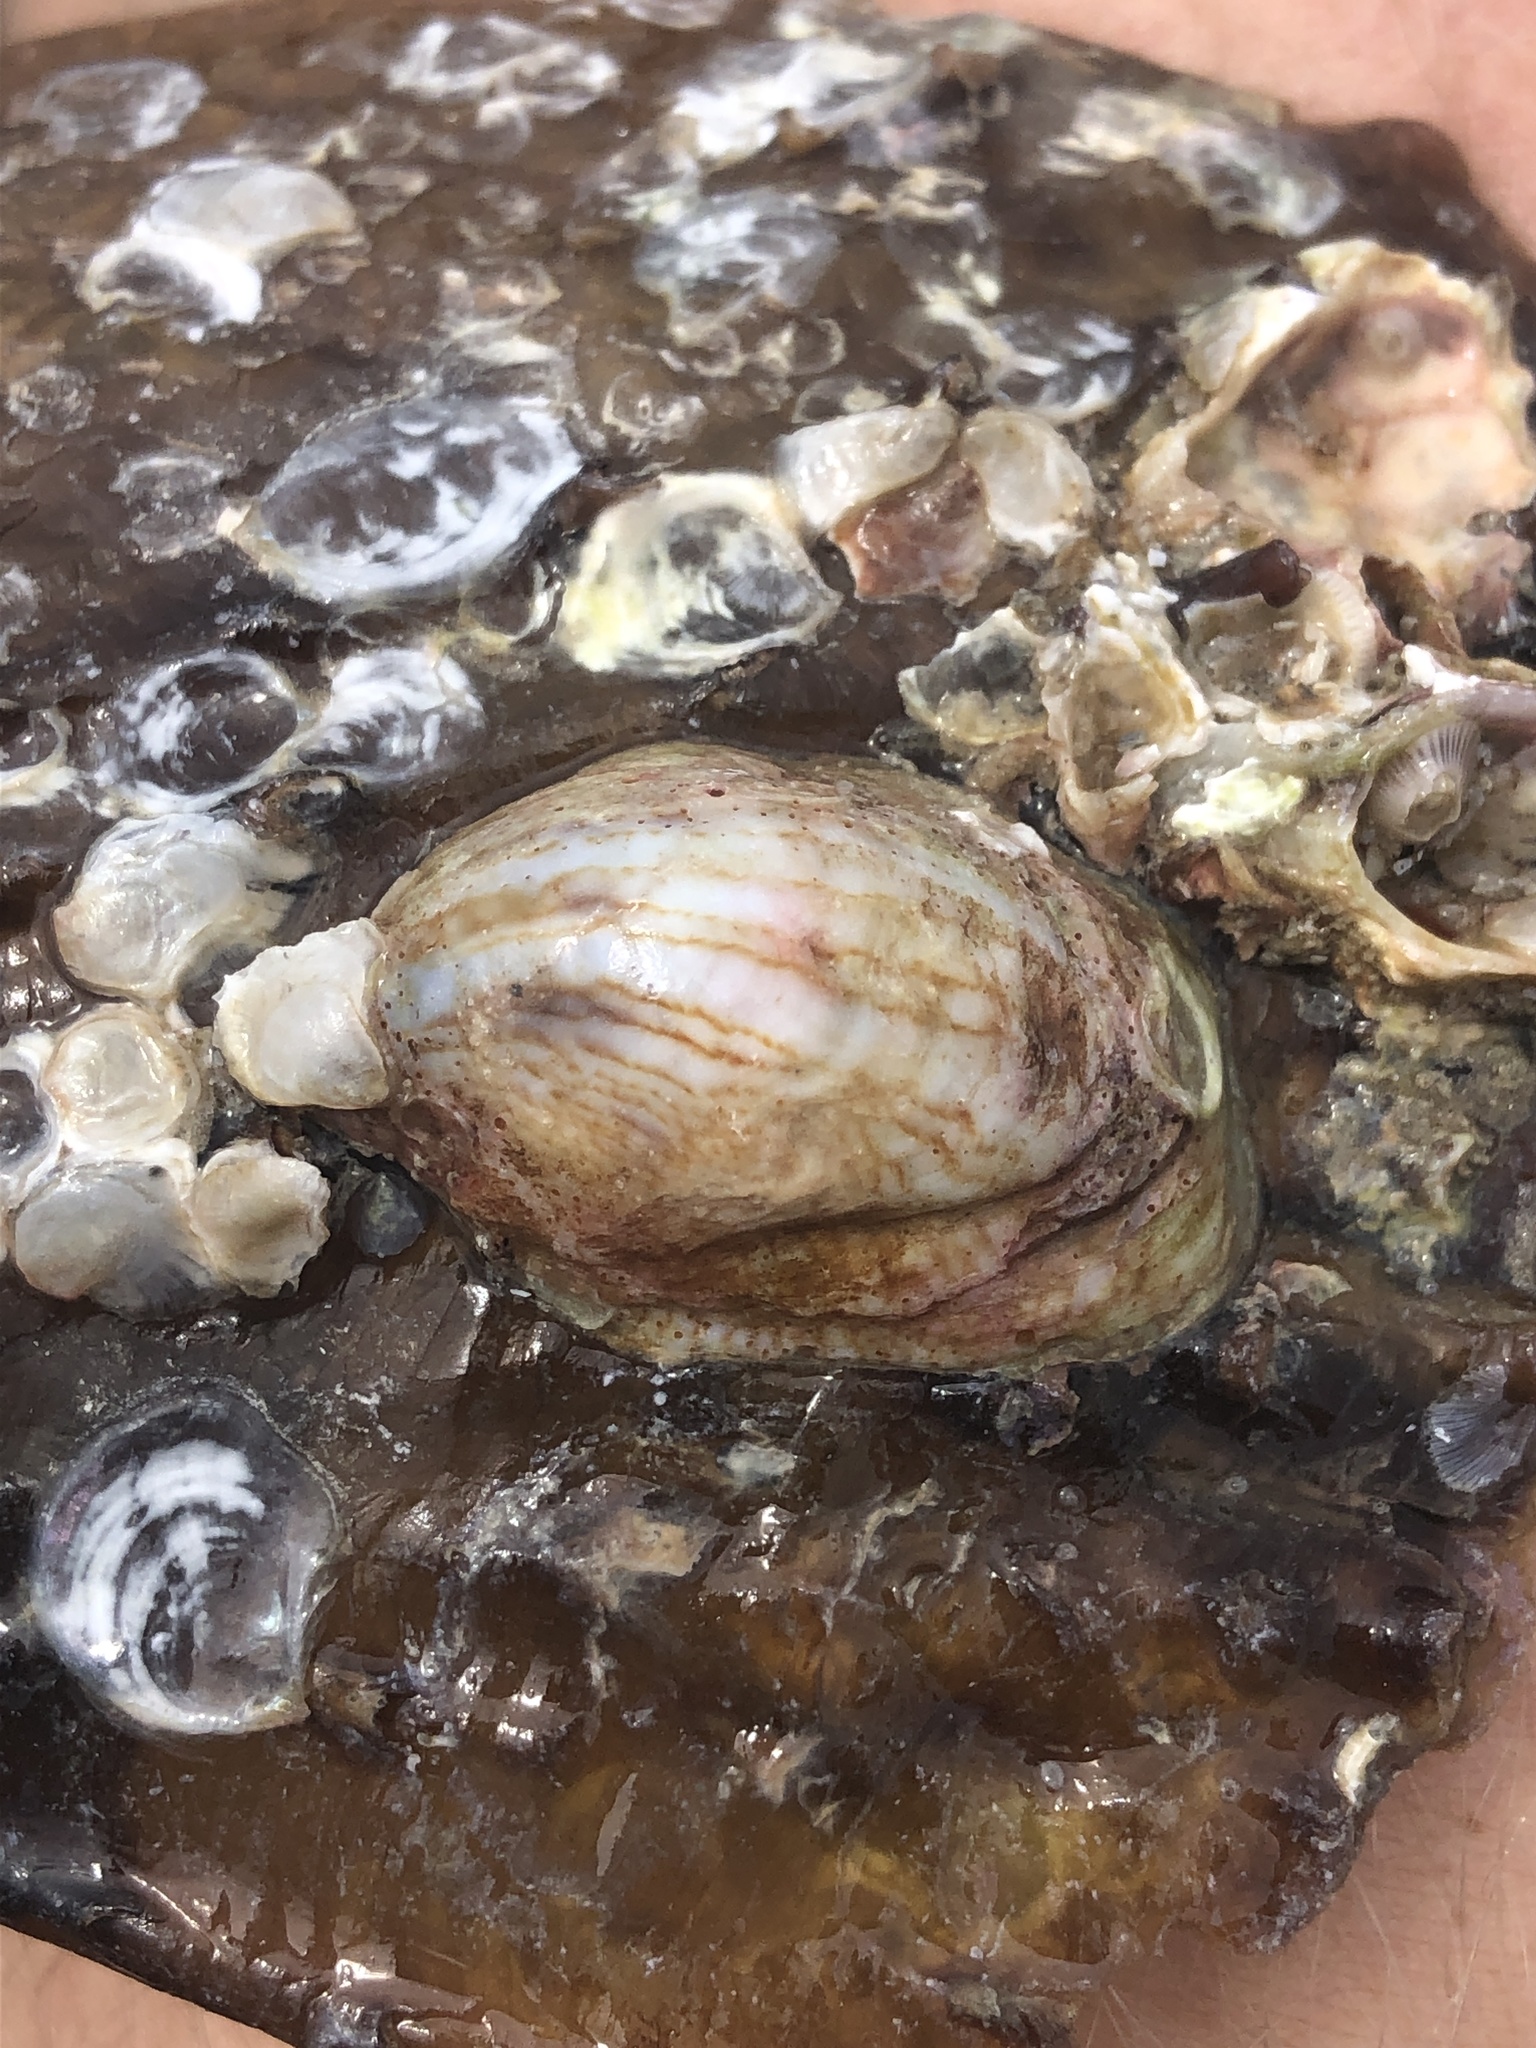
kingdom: Animalia
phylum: Mollusca
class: Gastropoda
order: Littorinimorpha
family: Calyptraeidae
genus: Crepidula
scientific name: Crepidula fornicata
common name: Slipper limpet
